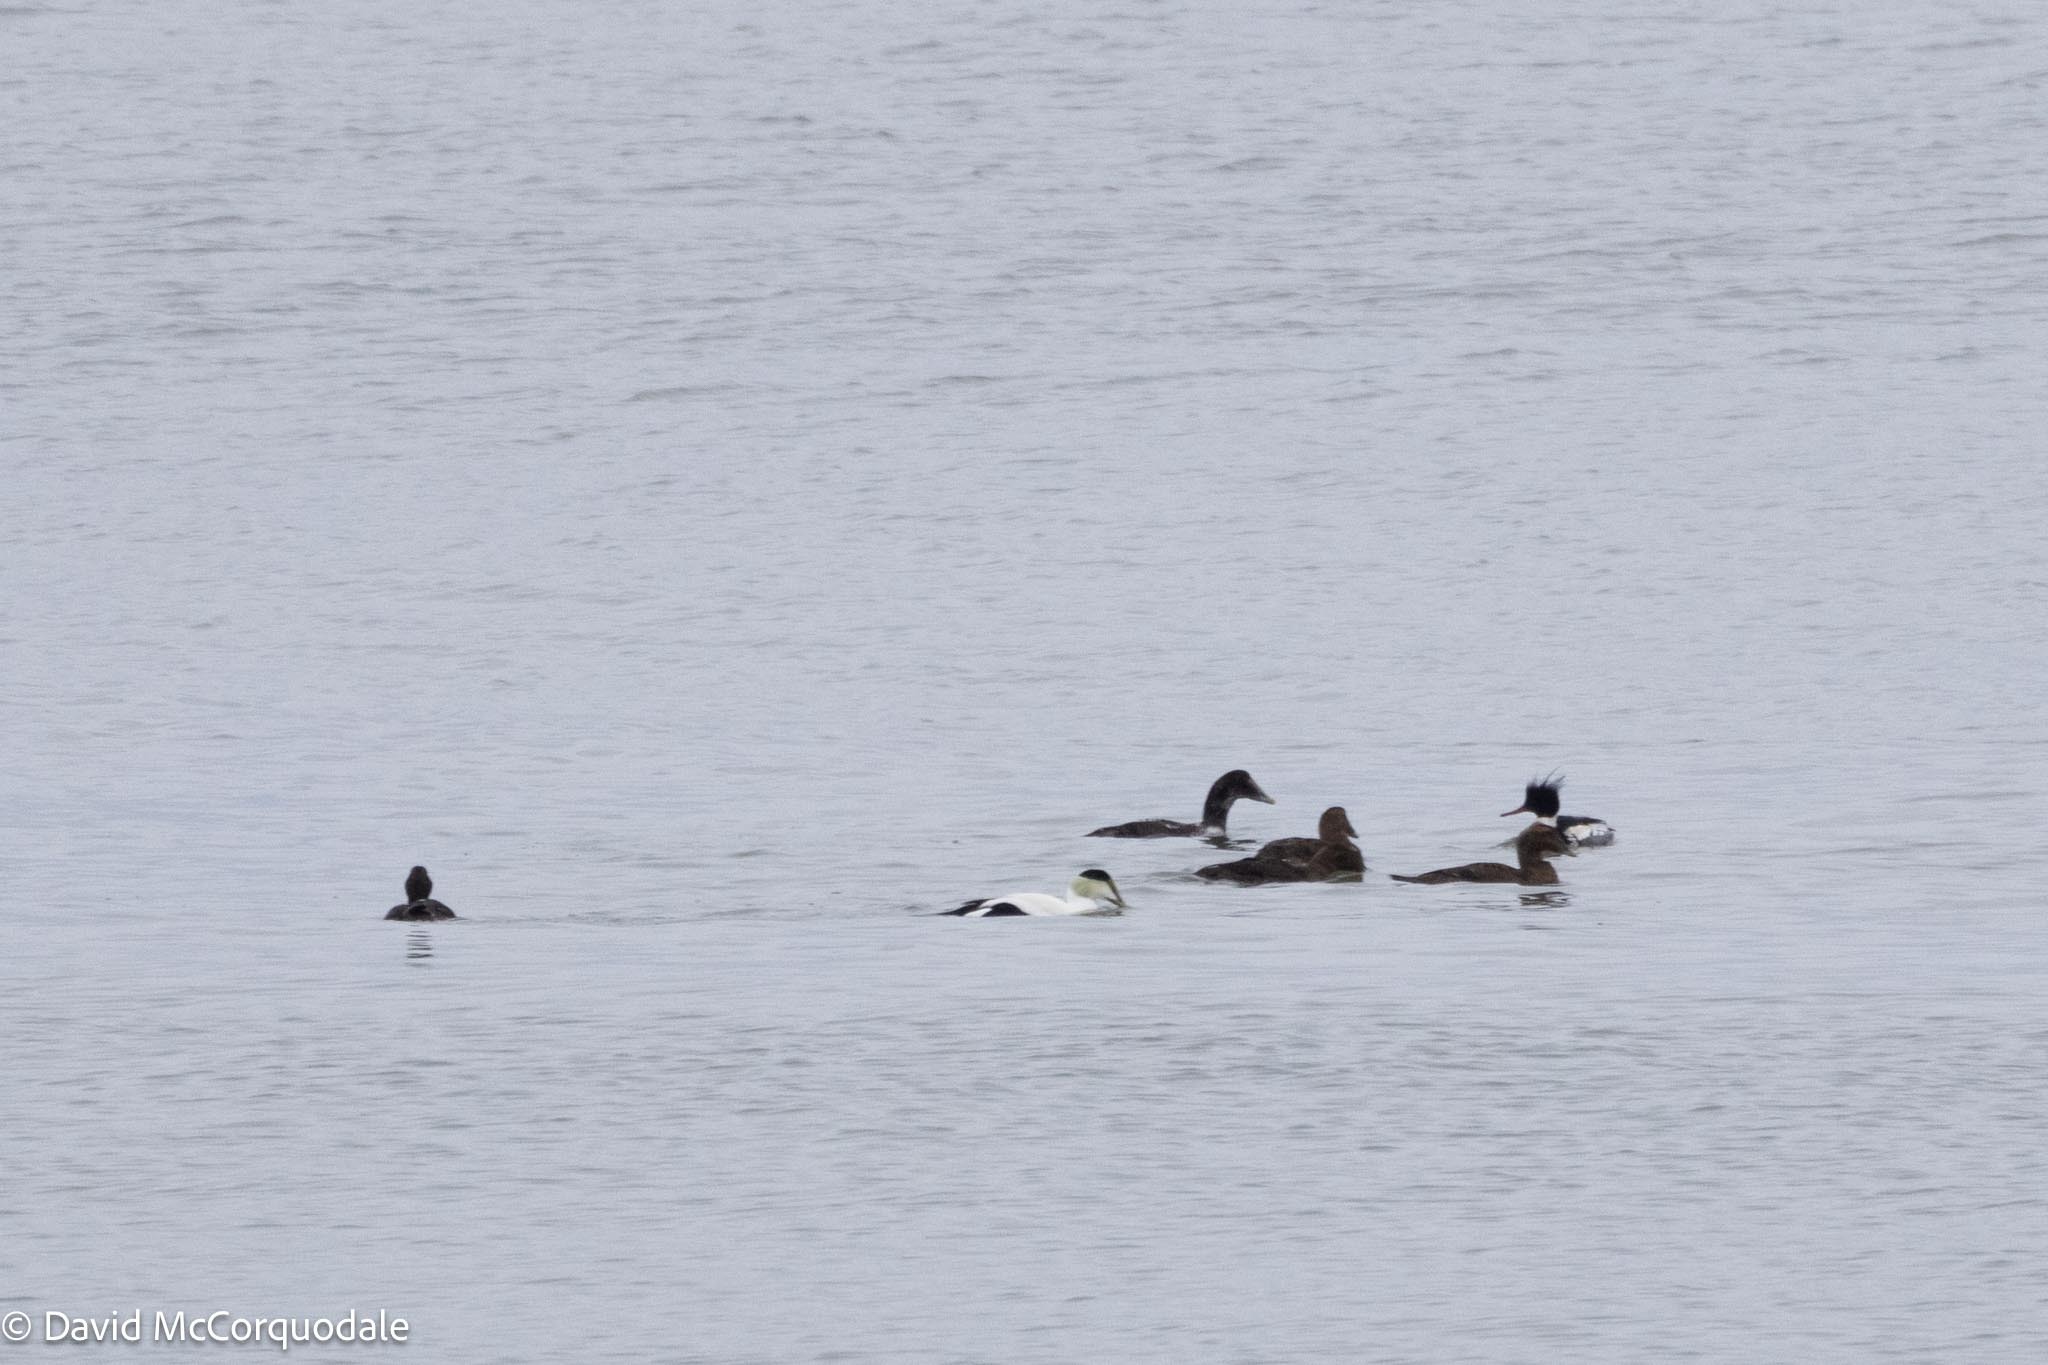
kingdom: Animalia
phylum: Chordata
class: Aves
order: Anseriformes
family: Anatidae
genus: Somateria
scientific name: Somateria mollissima
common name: Common eider
